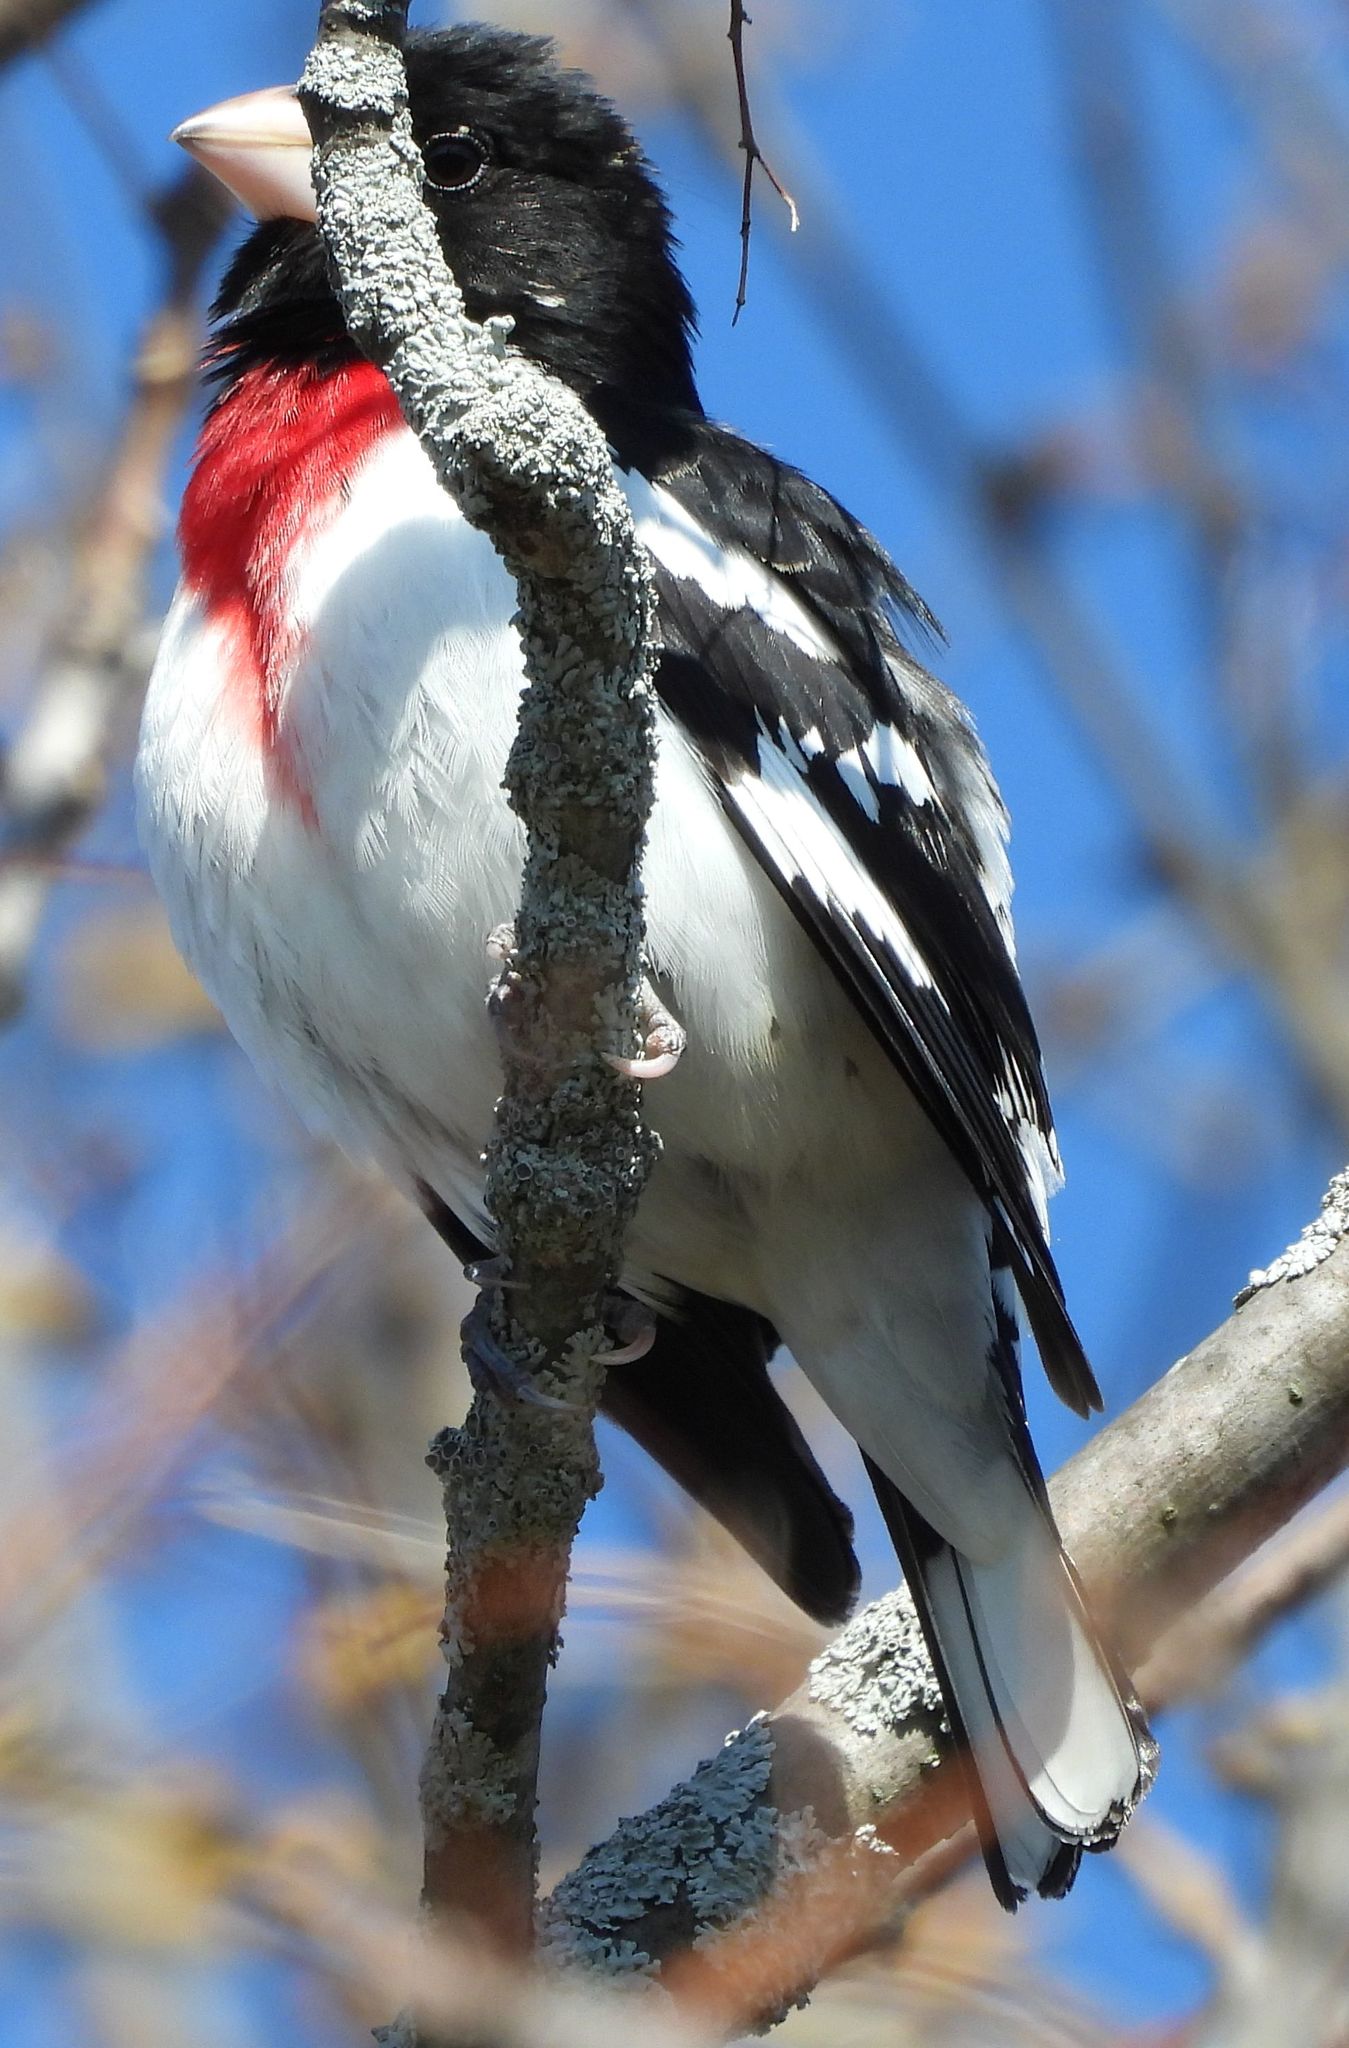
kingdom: Animalia
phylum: Chordata
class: Aves
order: Passeriformes
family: Cardinalidae
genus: Pheucticus
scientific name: Pheucticus ludovicianus
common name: Rose-breasted grosbeak
